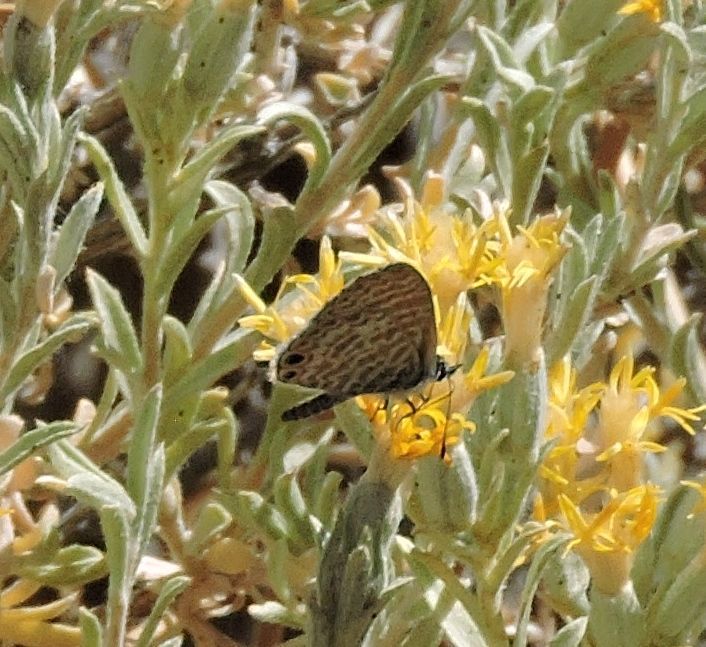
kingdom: Animalia
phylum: Arthropoda
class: Insecta
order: Lepidoptera
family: Lycaenidae
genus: Leptotes
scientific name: Leptotes marina
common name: Marine blue
